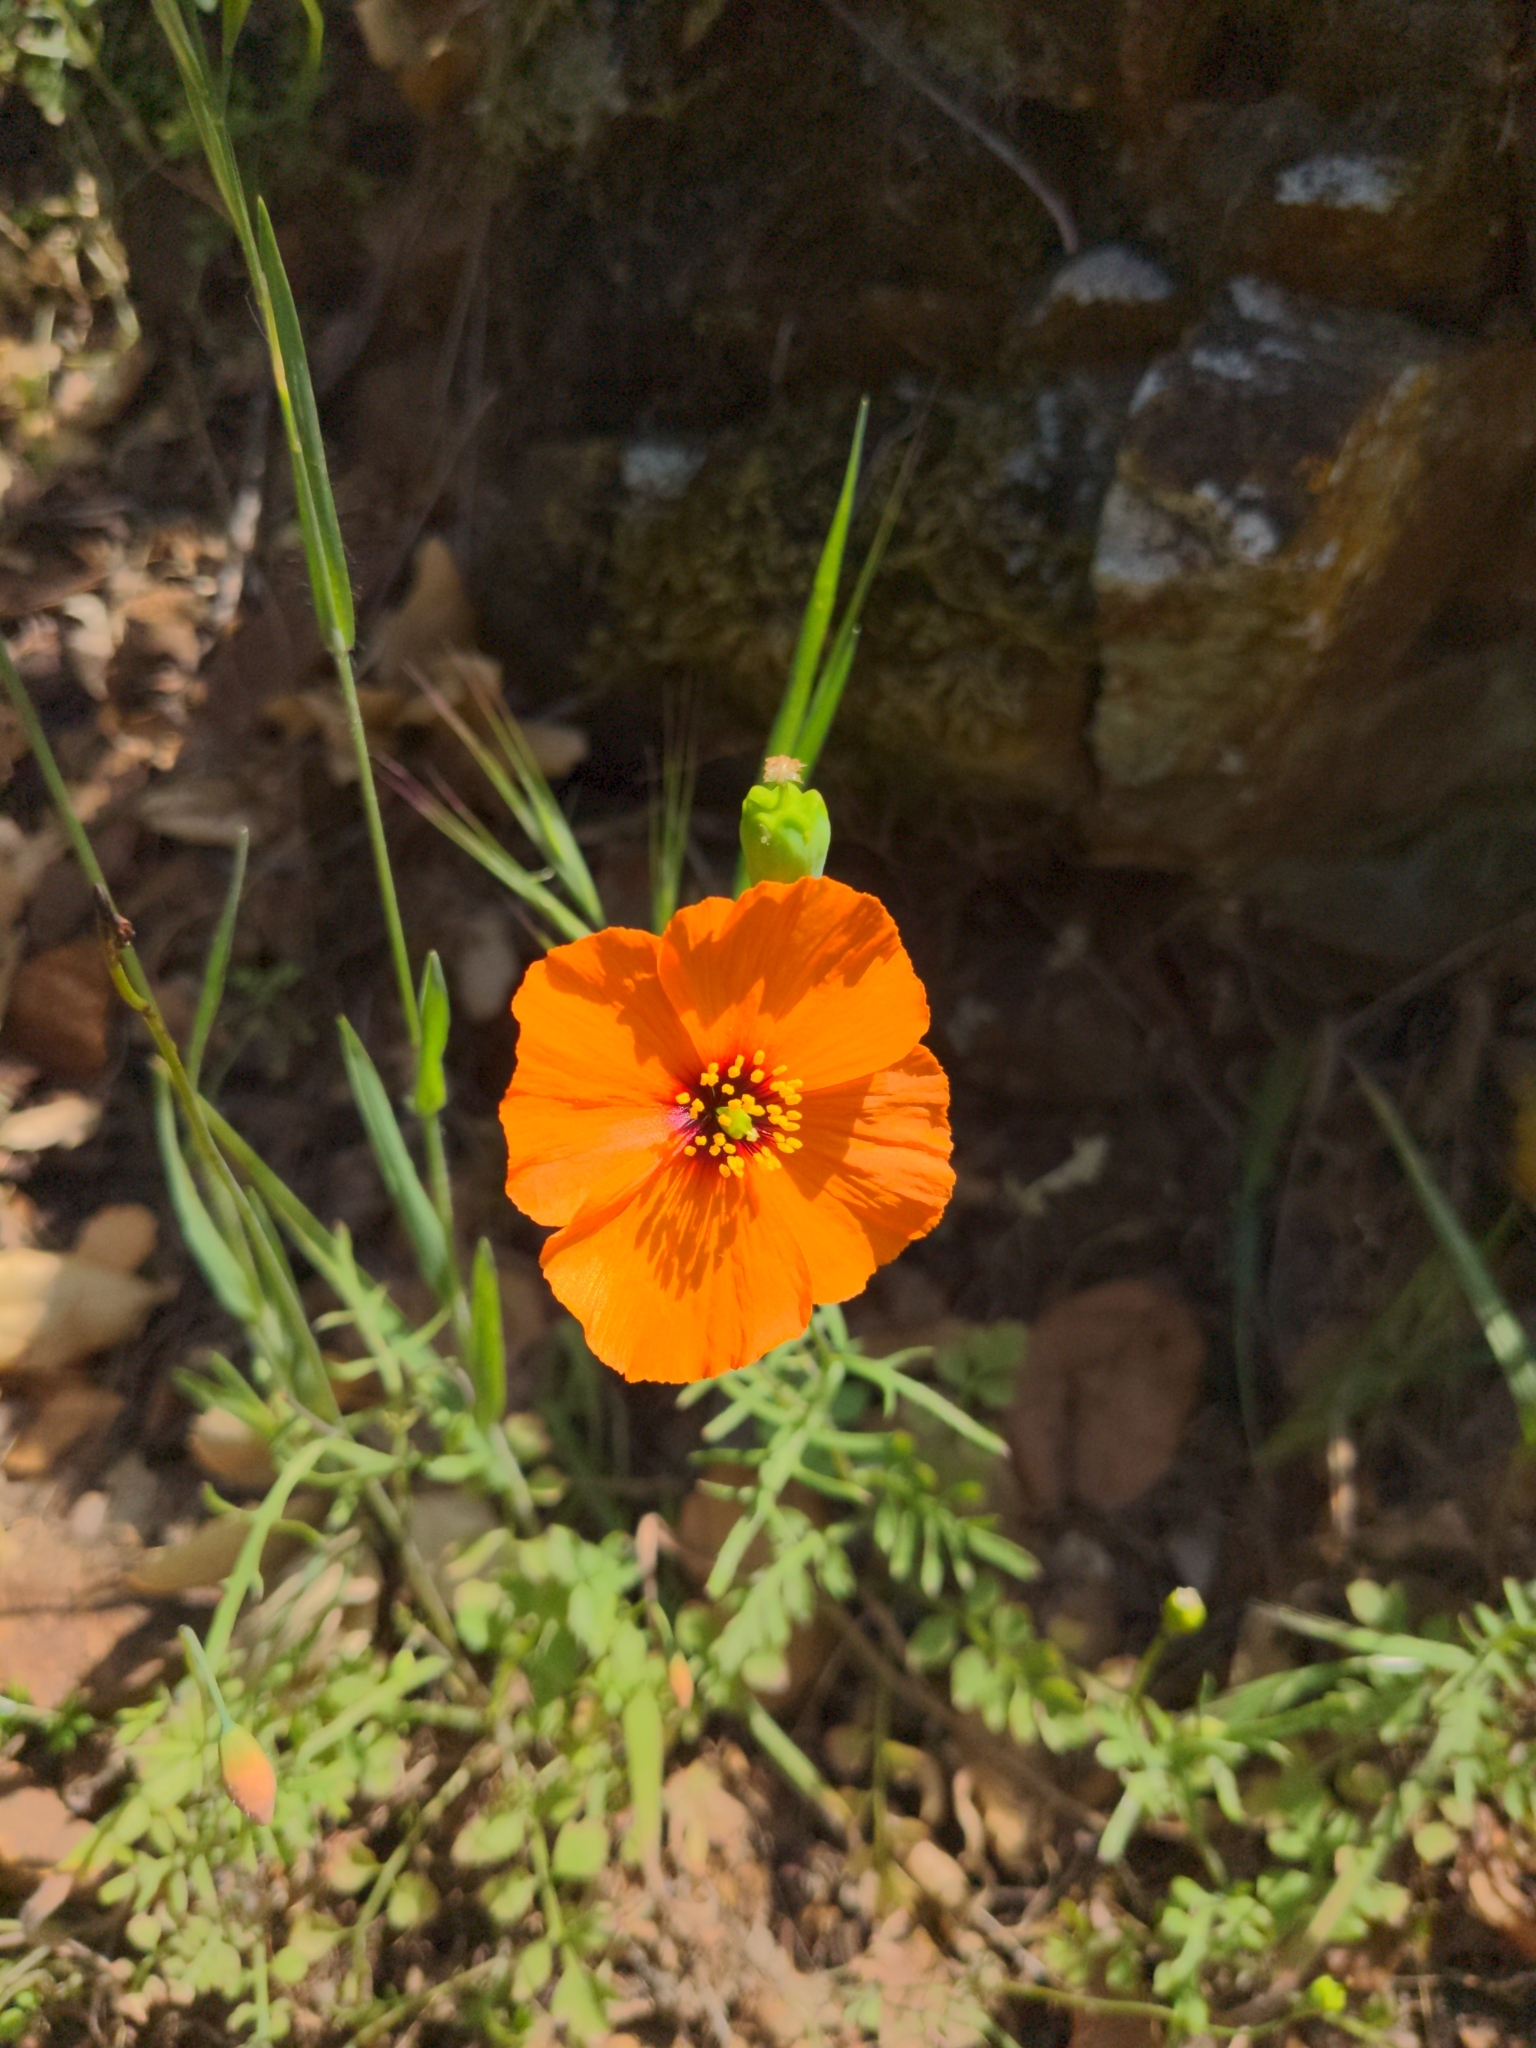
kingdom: Plantae
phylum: Tracheophyta
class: Magnoliopsida
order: Ranunculales
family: Papaveraceae
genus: Stylomecon
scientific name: Stylomecon heterophylla
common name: Flaming-poppy
